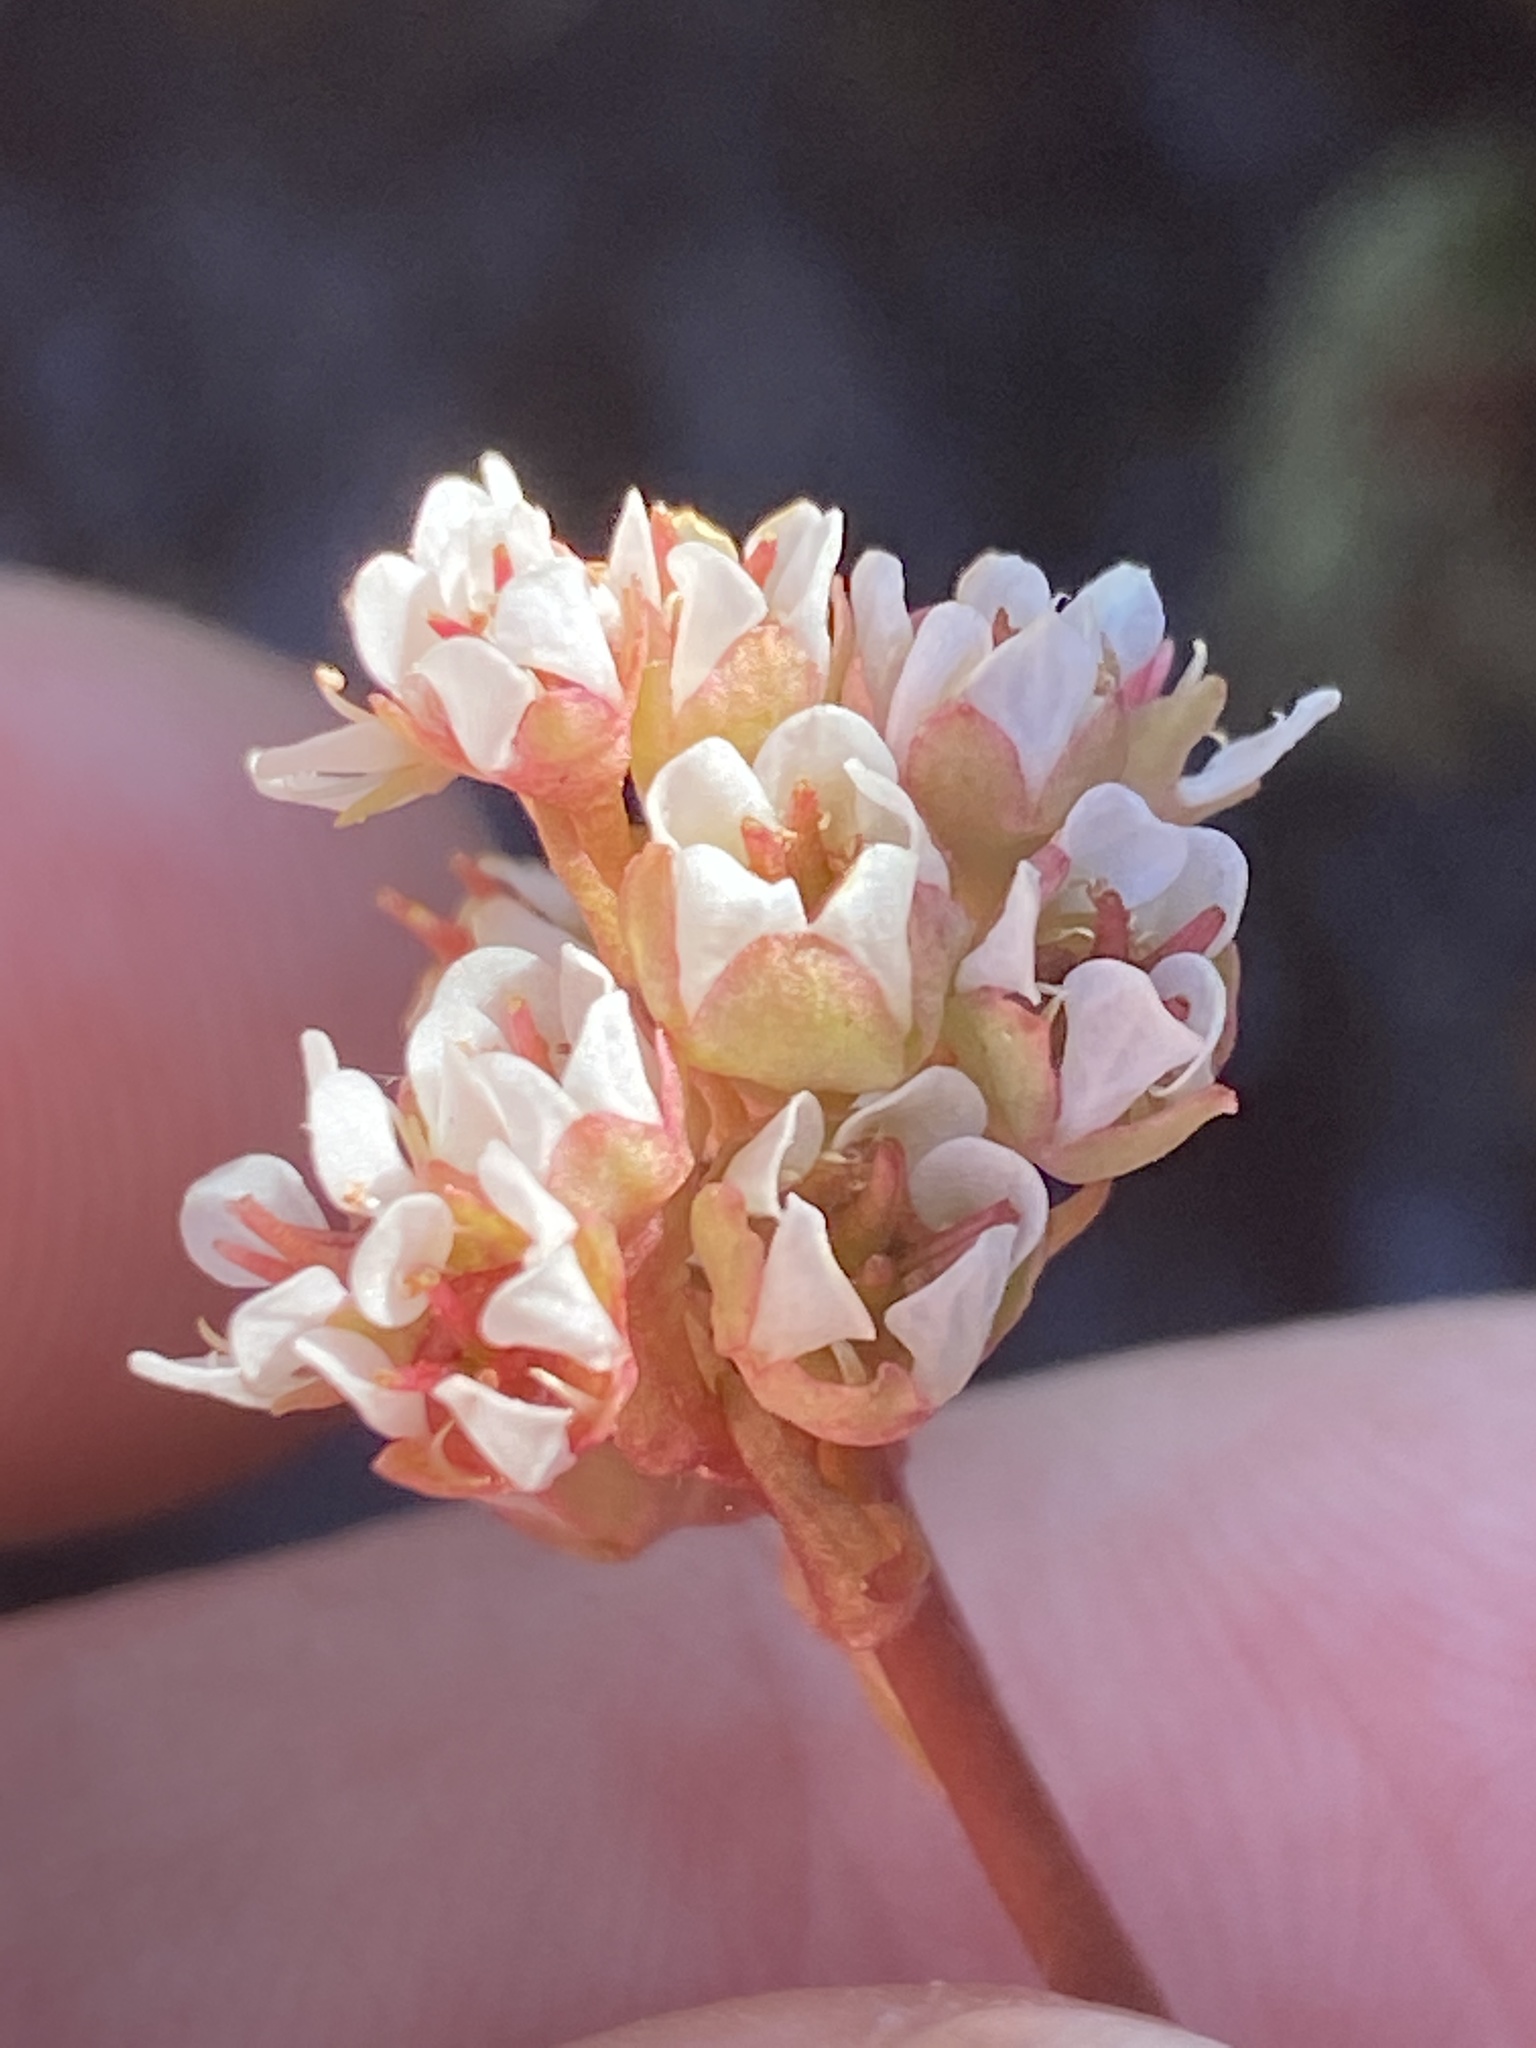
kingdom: Plantae
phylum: Tracheophyta
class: Magnoliopsida
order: Saxifragales
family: Saxifragaceae
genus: Micranthes
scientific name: Micranthes texana
